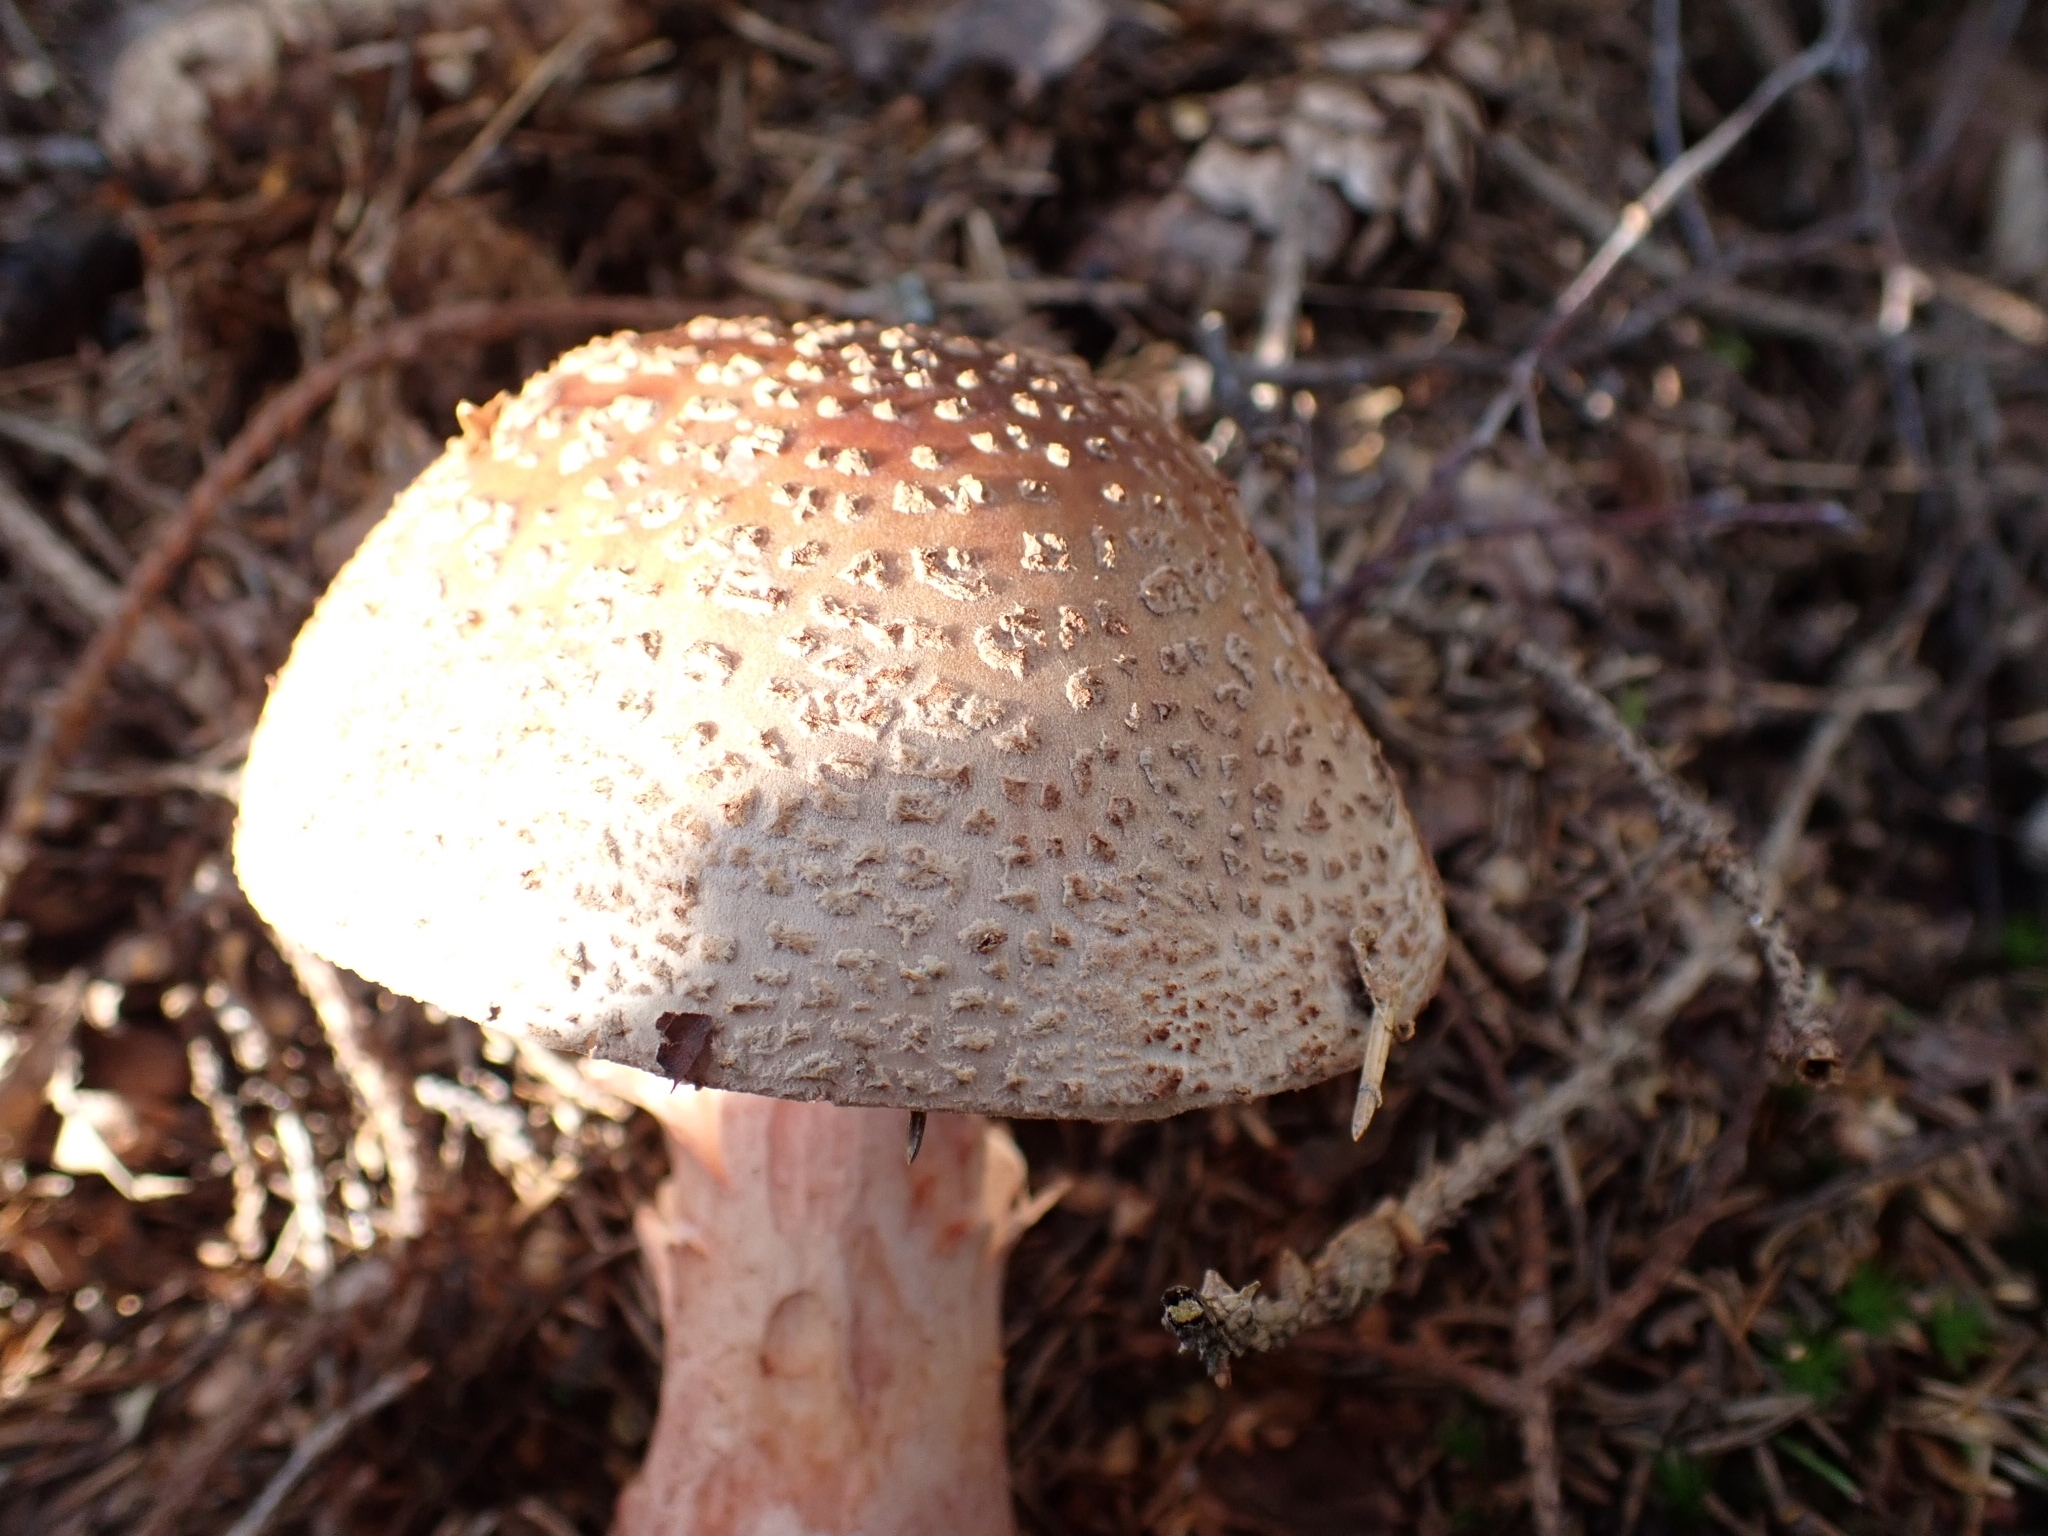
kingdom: Fungi
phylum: Basidiomycota
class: Agaricomycetes
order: Agaricales
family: Amanitaceae
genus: Amanita
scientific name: Amanita rubescens
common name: Blusher
